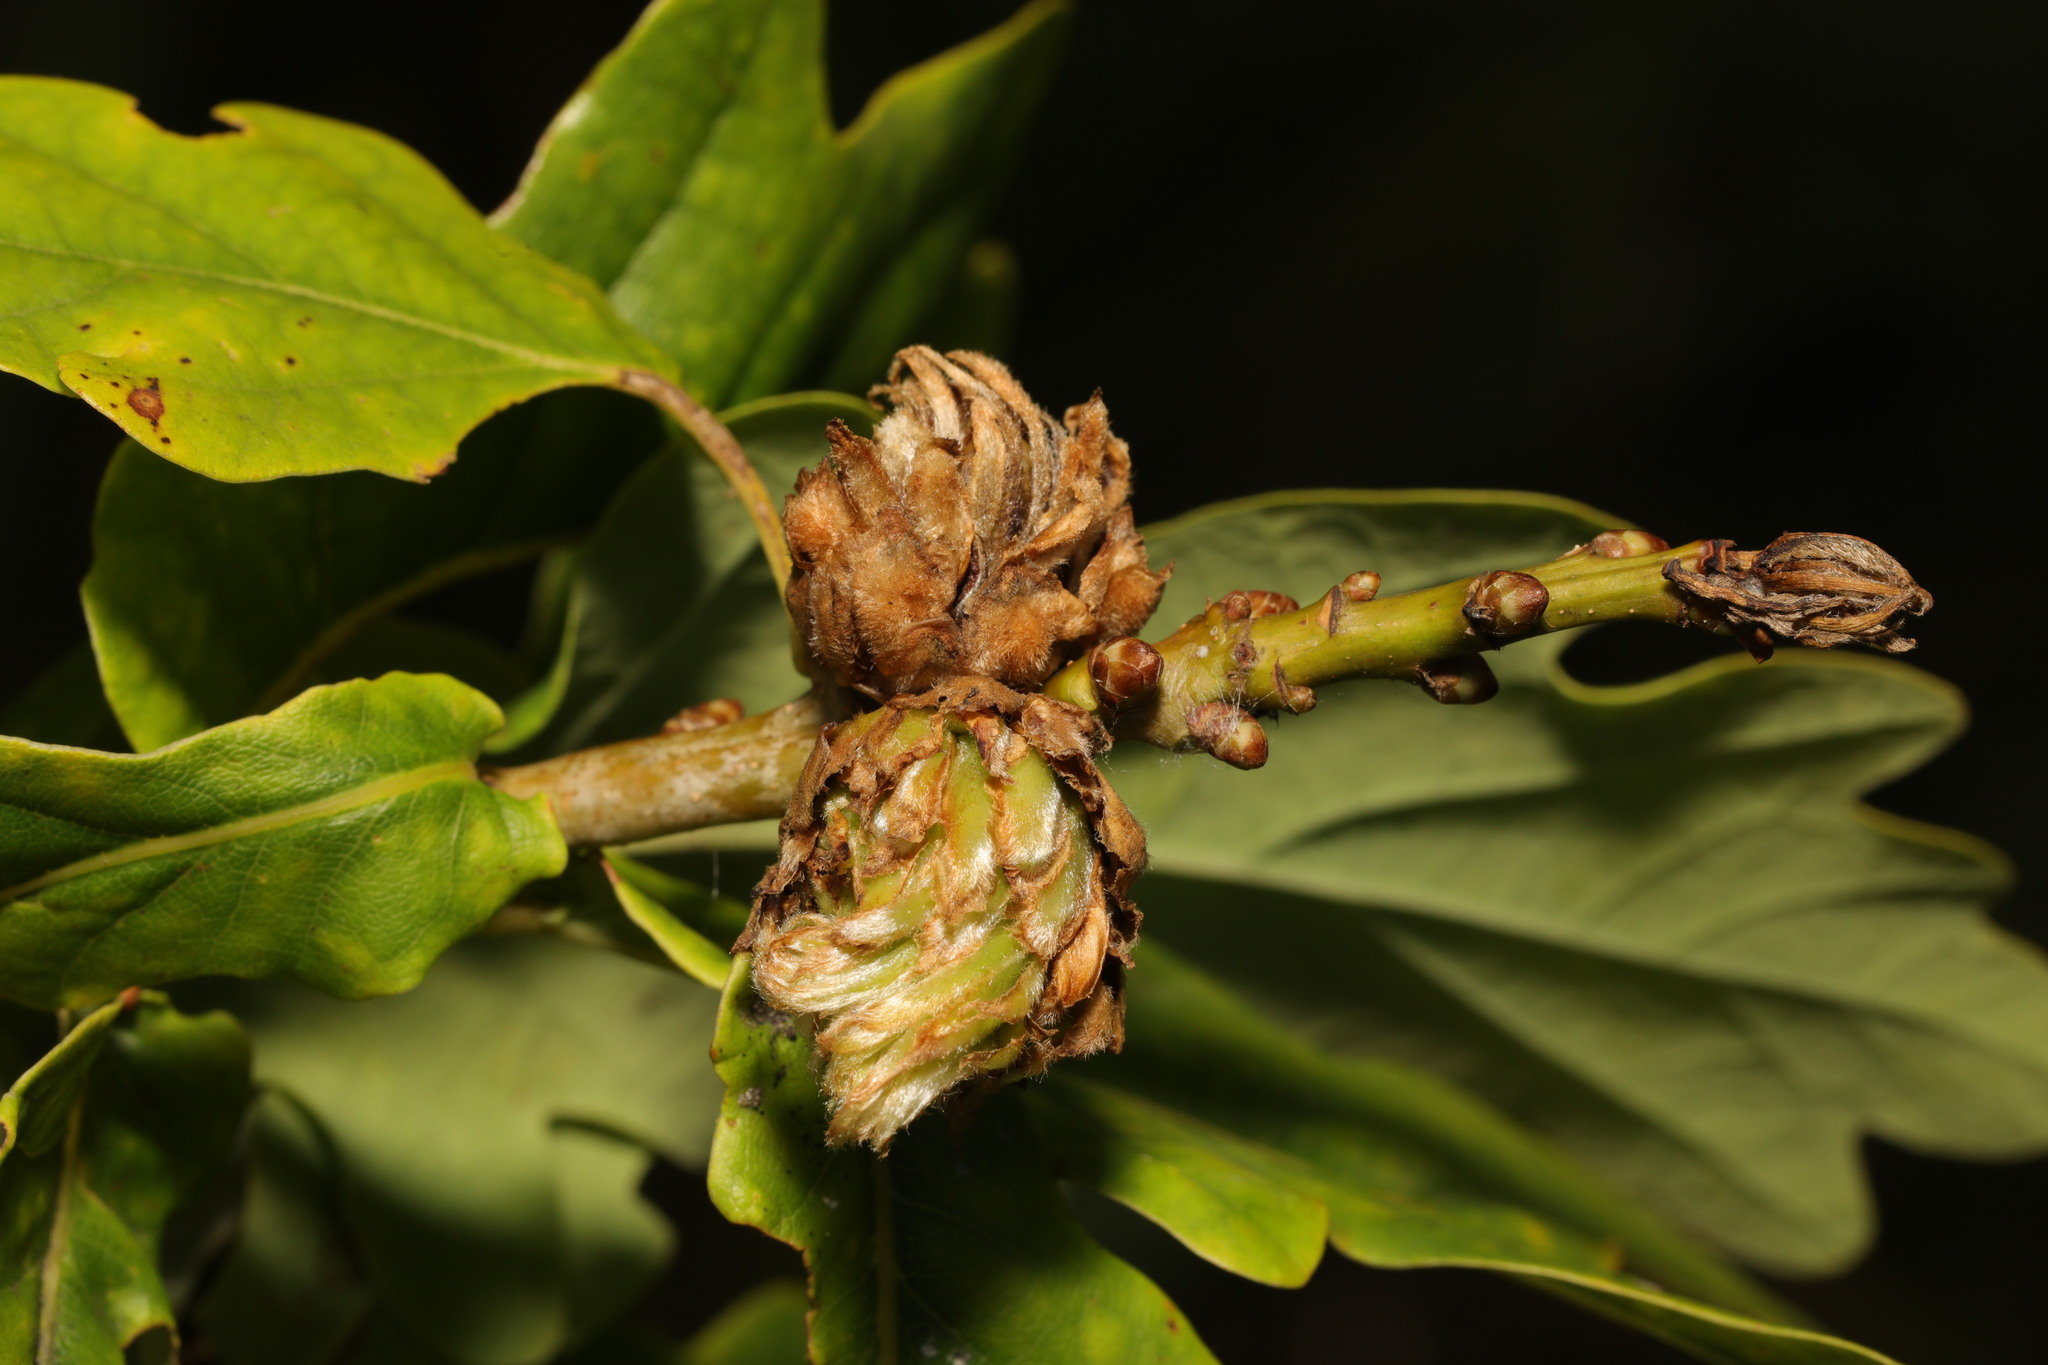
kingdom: Animalia
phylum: Arthropoda
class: Insecta
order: Hymenoptera
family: Cynipidae
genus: Andricus
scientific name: Andricus foecundatrix
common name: Artichoke gall
